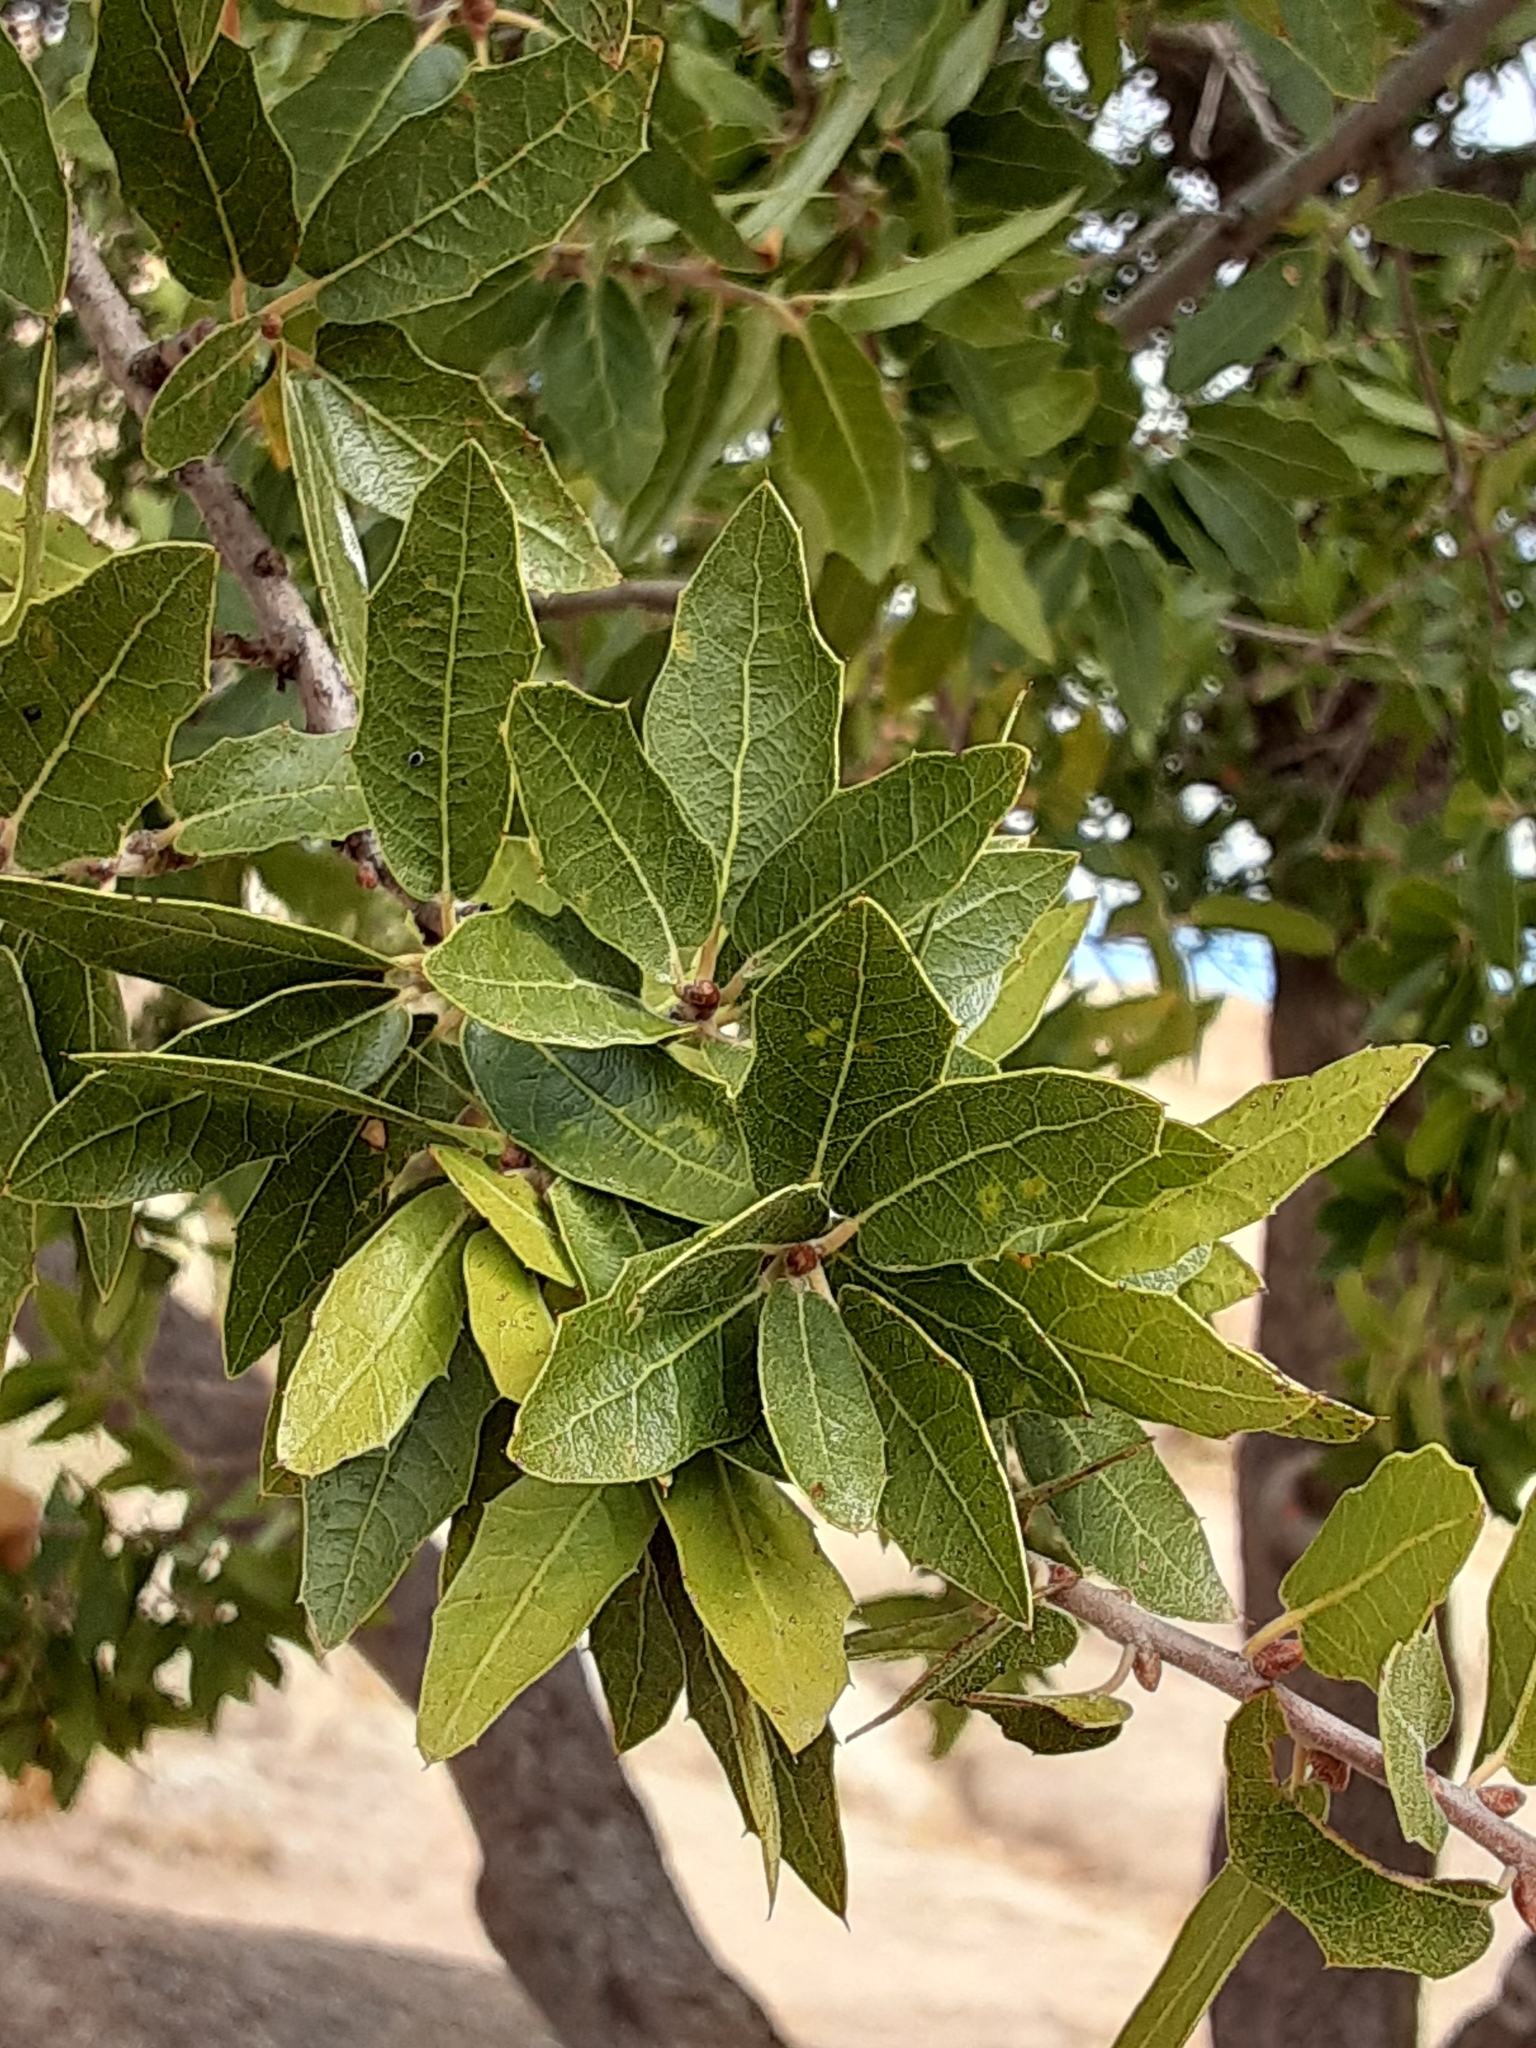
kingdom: Plantae
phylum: Tracheophyta
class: Magnoliopsida
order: Fagales
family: Fagaceae
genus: Quercus
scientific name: Quercus emoryi
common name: Emory oak
